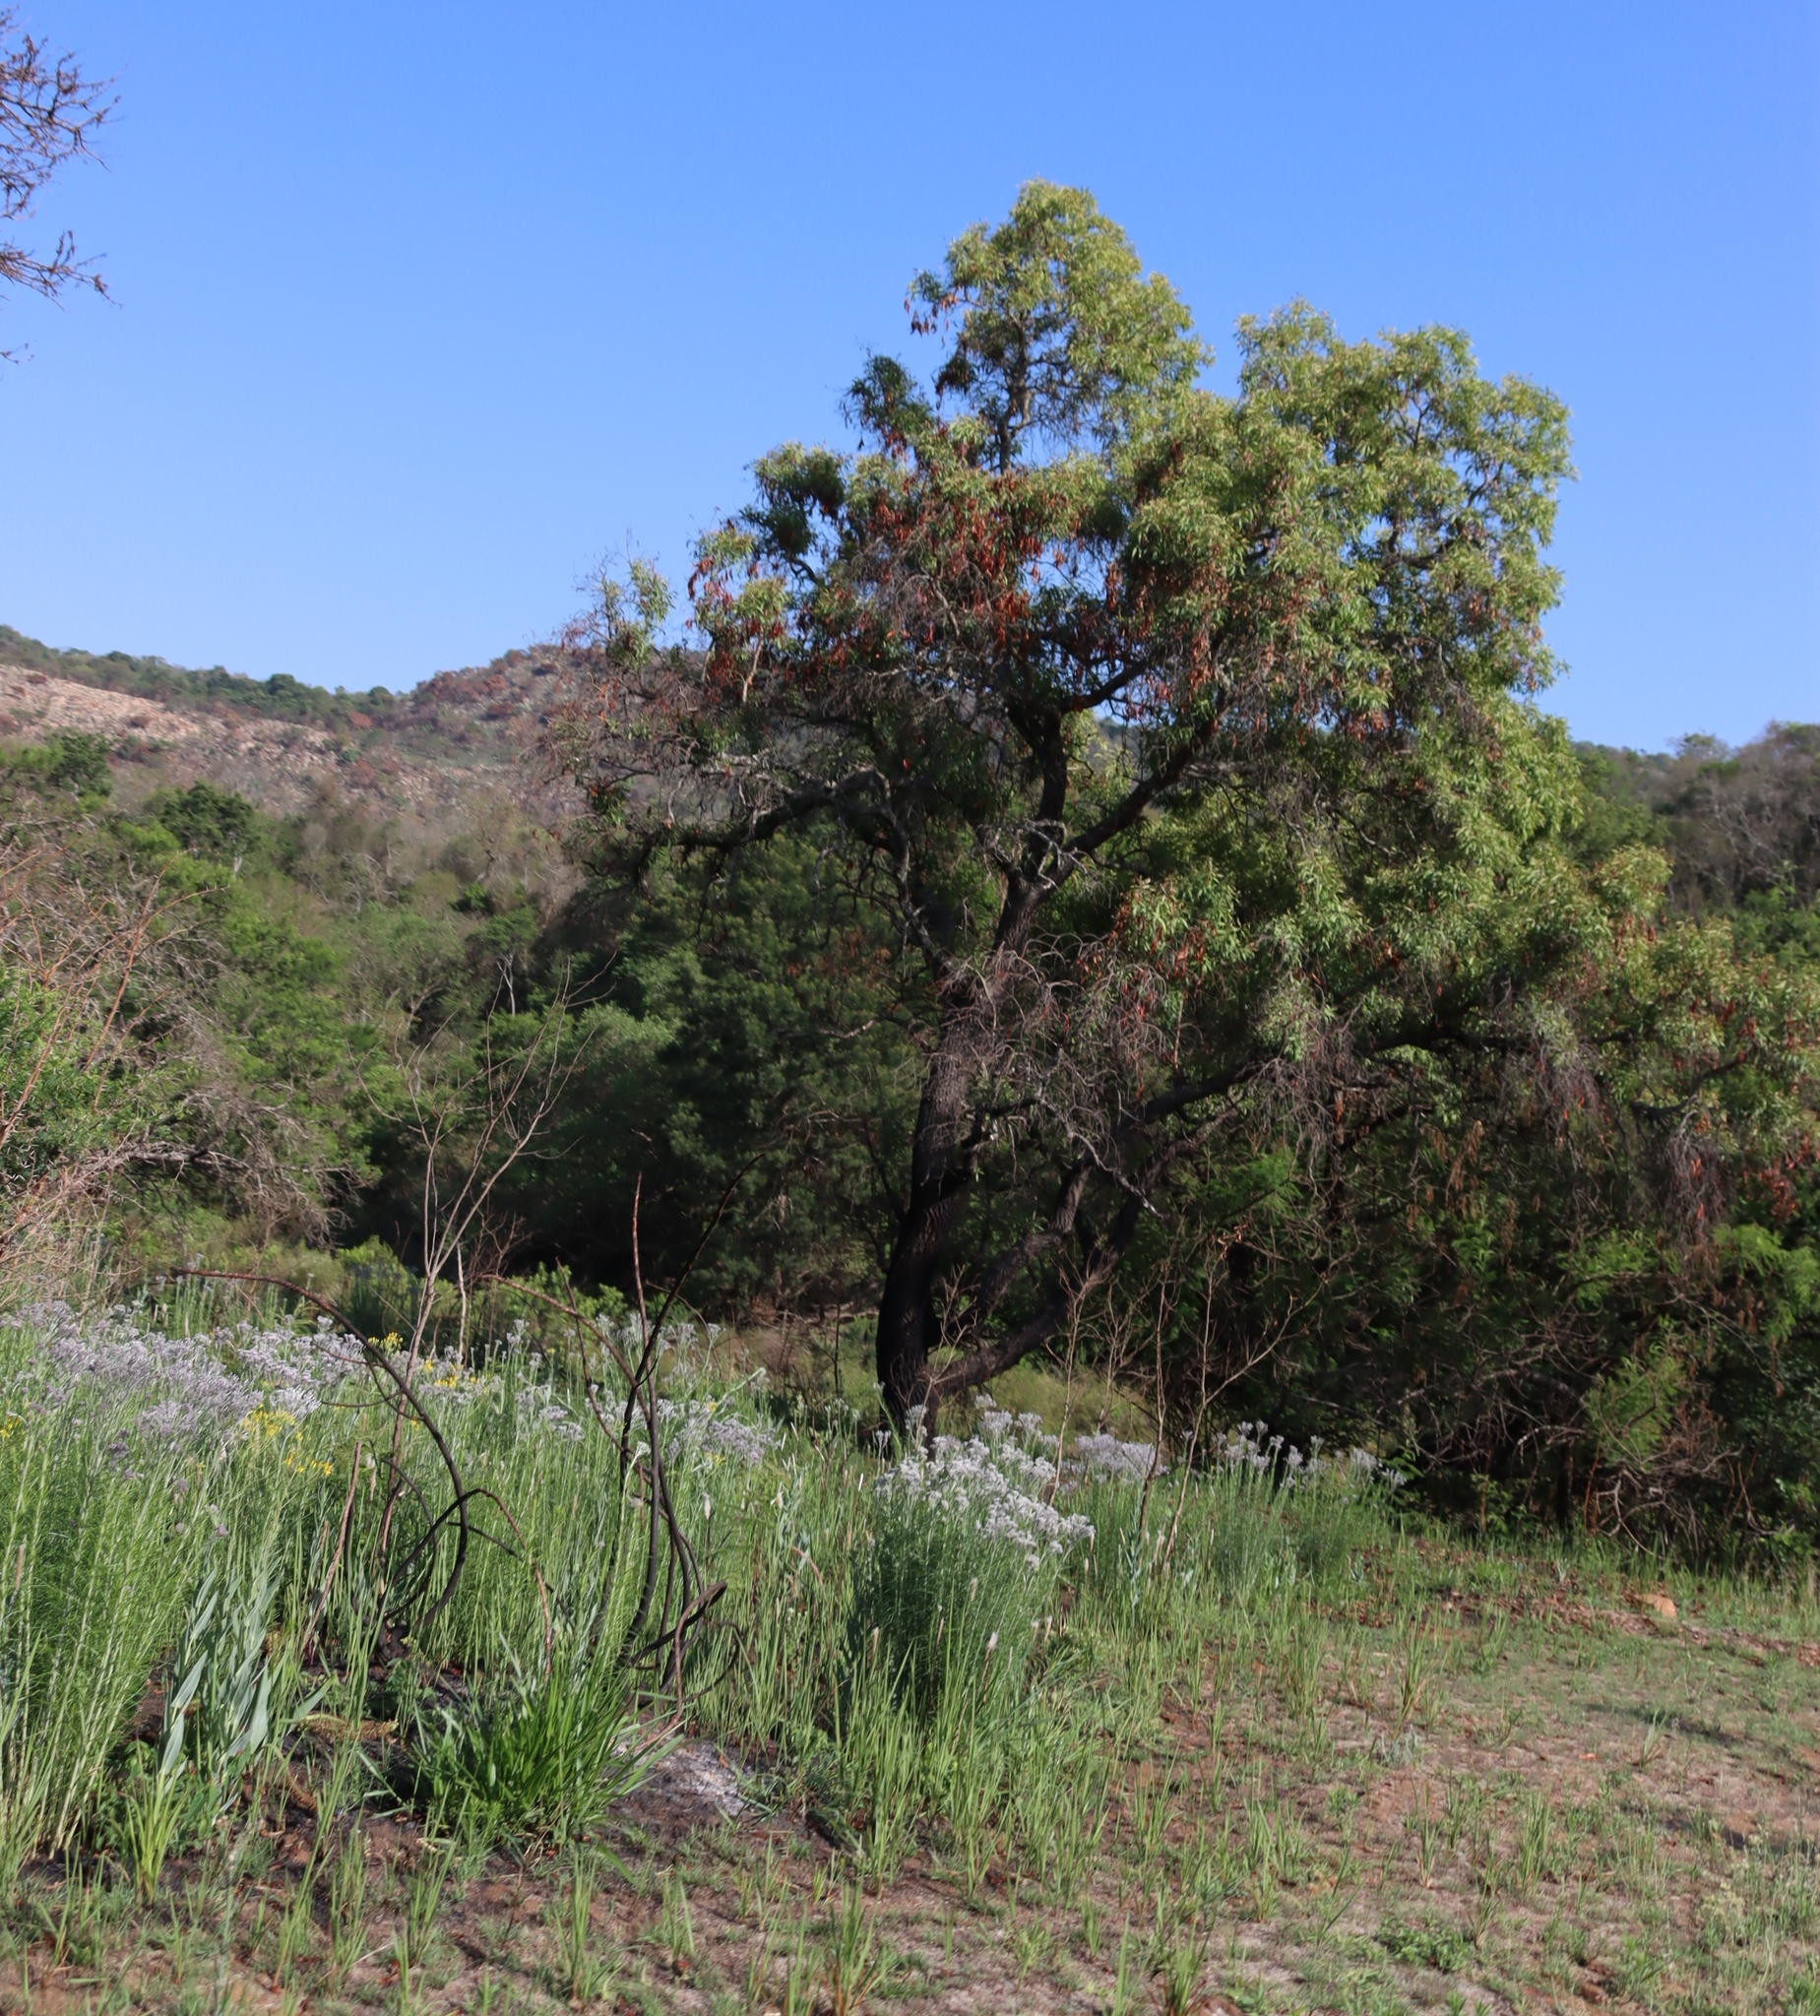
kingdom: Plantae
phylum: Tracheophyta
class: Magnoliopsida
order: Proteales
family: Proteaceae
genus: Faurea
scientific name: Faurea saligna
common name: African bean
